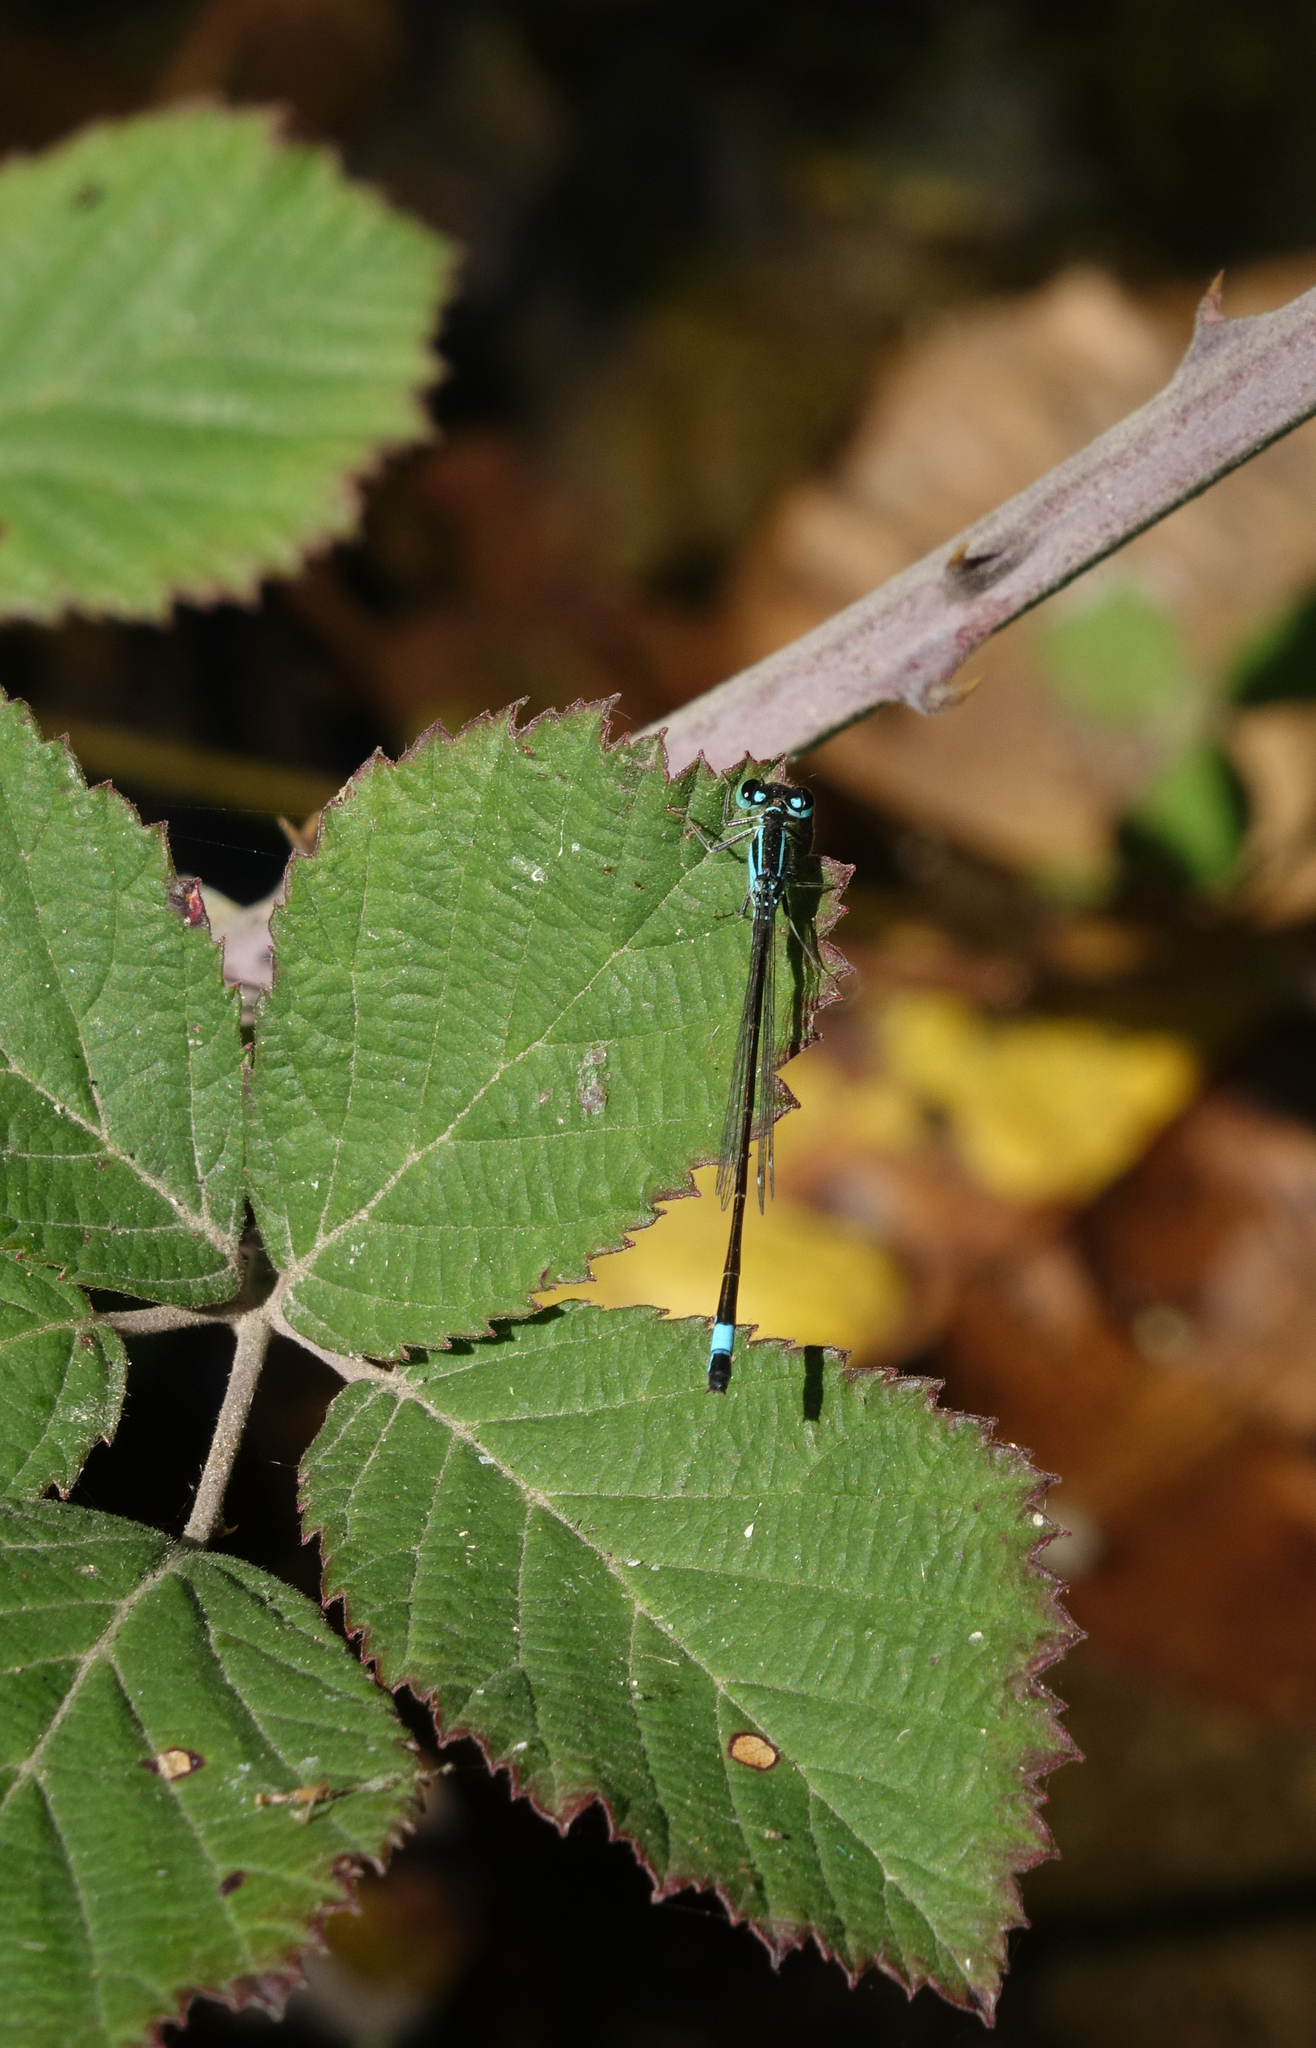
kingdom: Animalia
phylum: Arthropoda
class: Insecta
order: Odonata
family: Coenagrionidae
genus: Ischnura
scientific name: Ischnura elegans
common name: Blue-tailed damselfly
